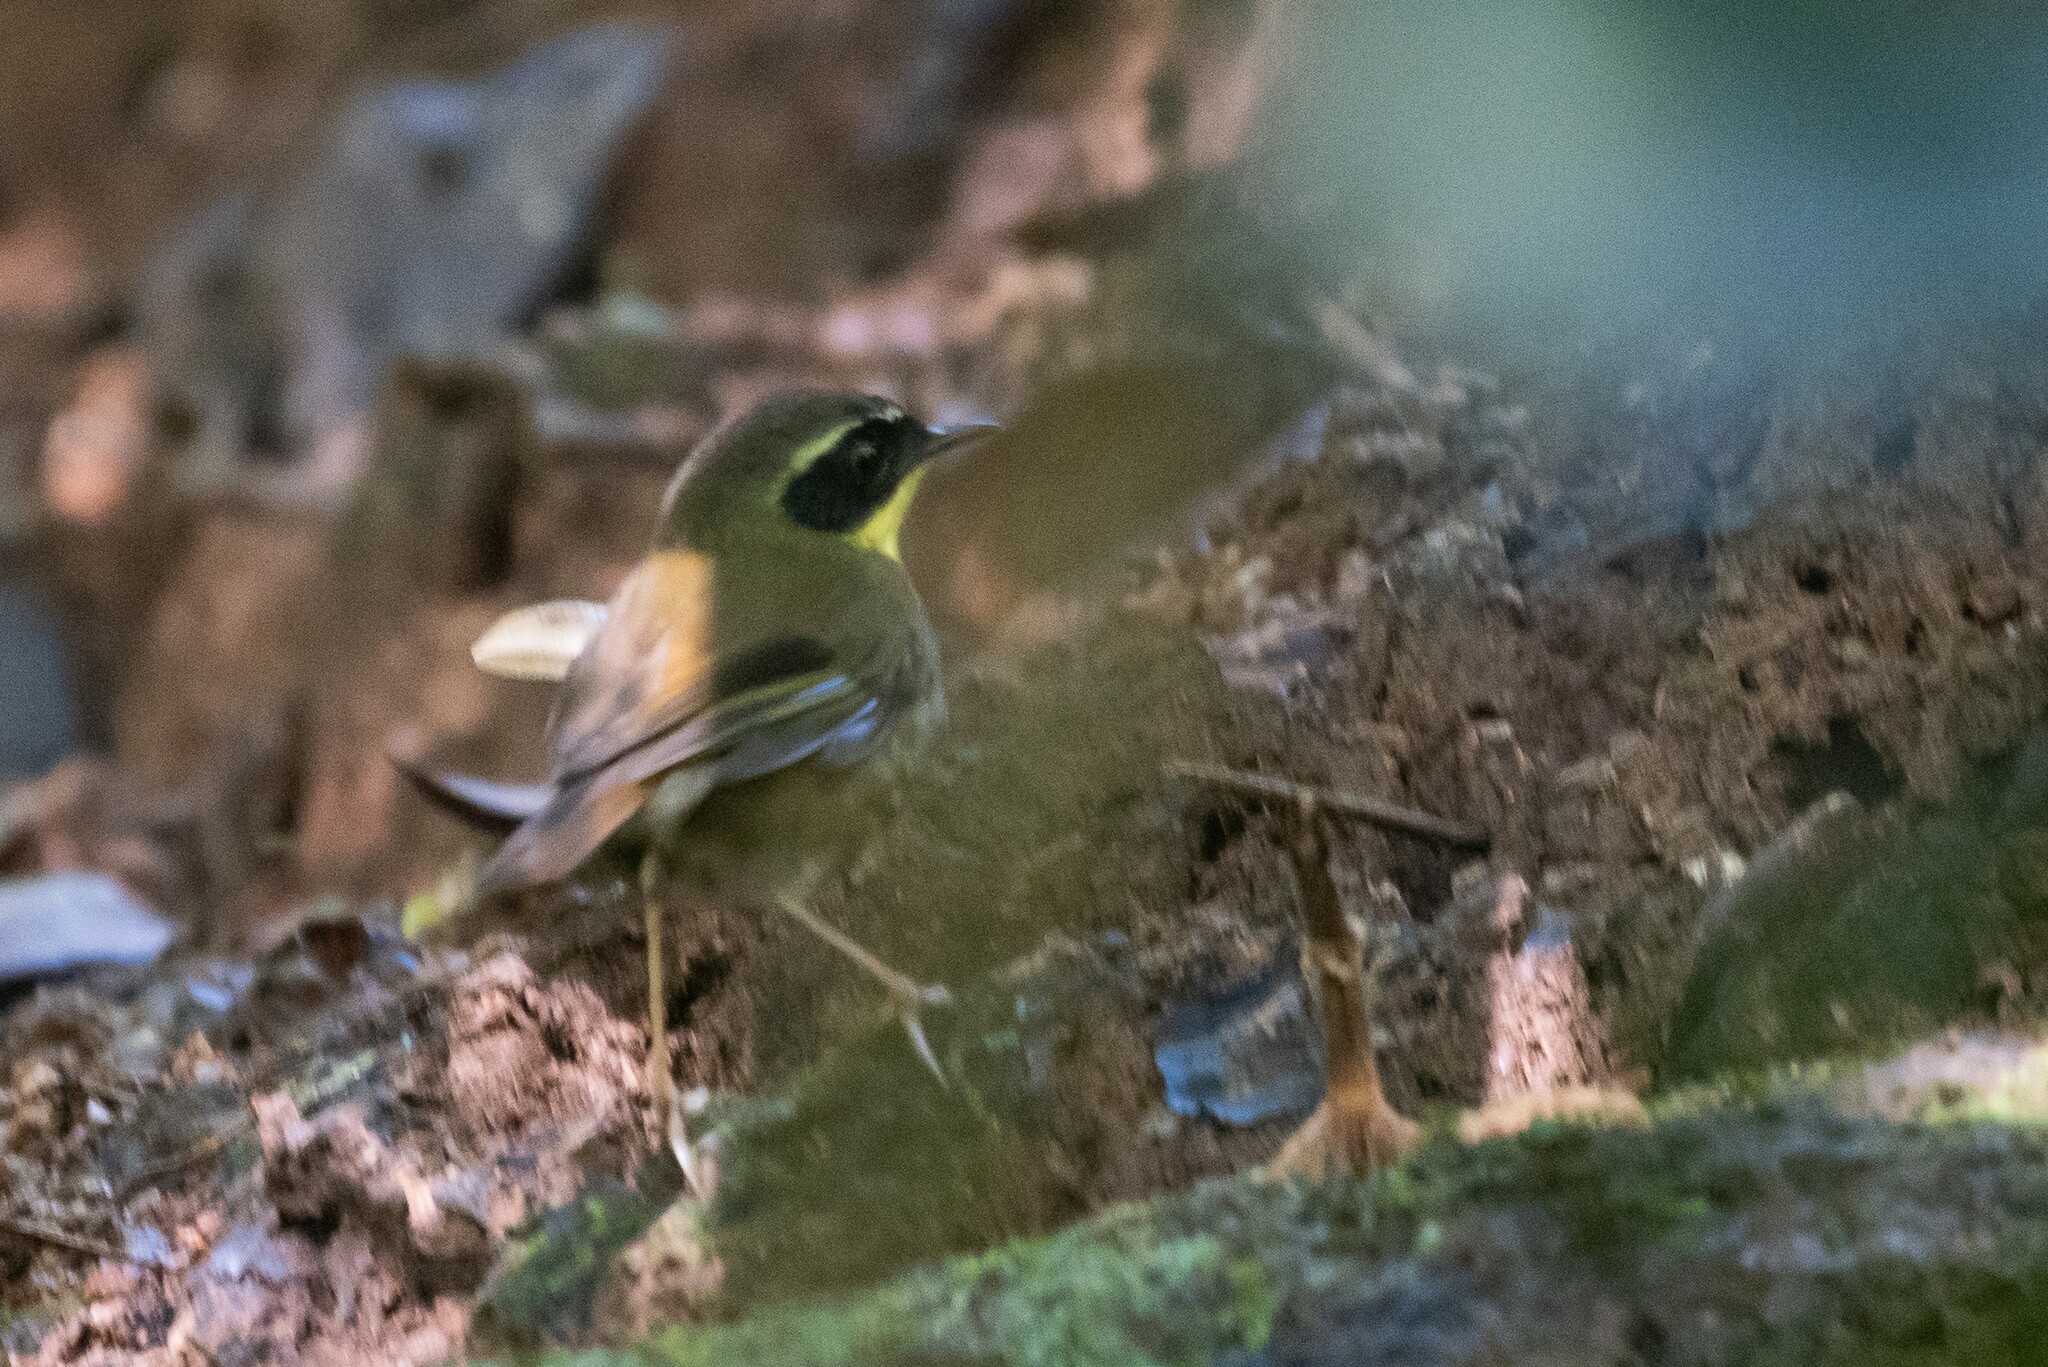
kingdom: Animalia
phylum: Chordata
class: Aves
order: Passeriformes
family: Acanthizidae
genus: Sericornis
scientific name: Sericornis citreogularis
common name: Yellow-throated scrubwren
